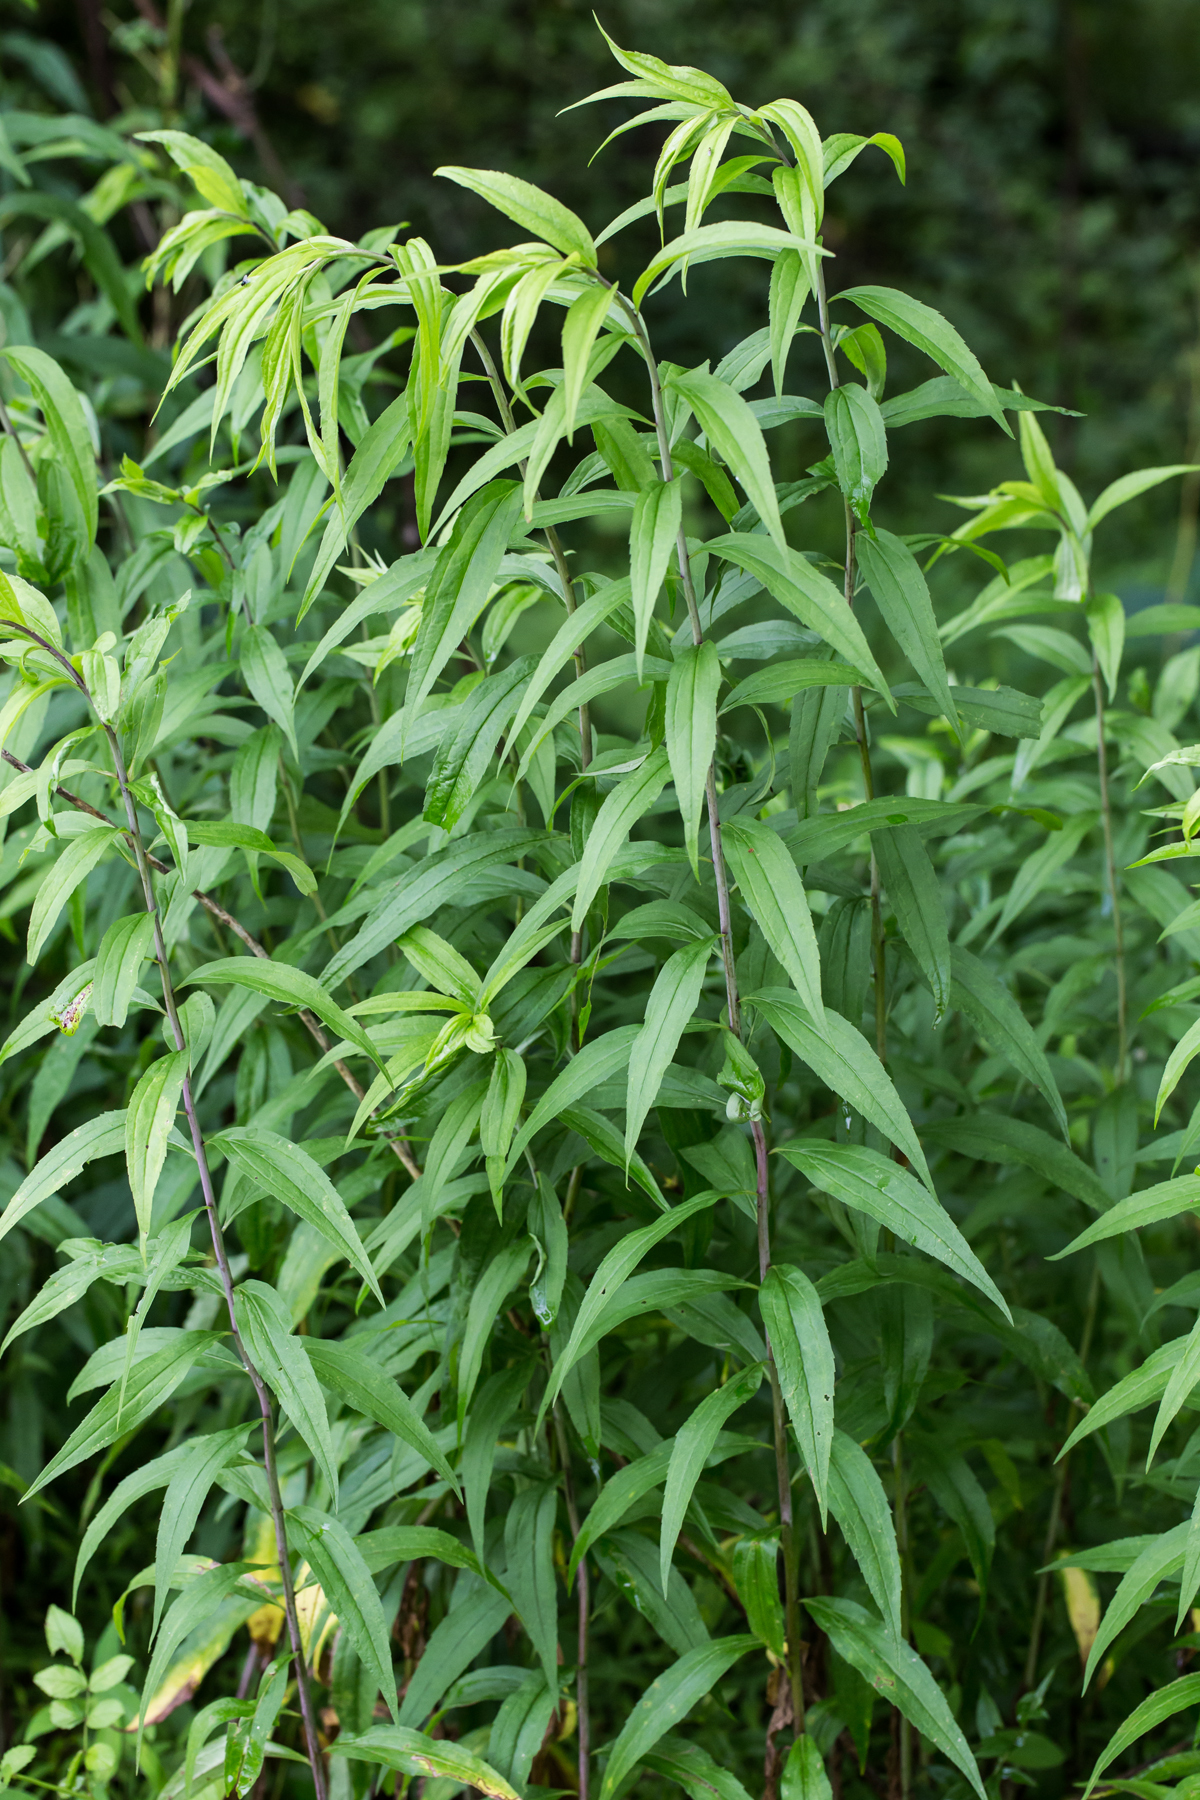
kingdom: Plantae
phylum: Tracheophyta
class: Magnoliopsida
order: Asterales
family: Asteraceae
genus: Solidago
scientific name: Solidago gigantea
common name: Giant goldenrod
